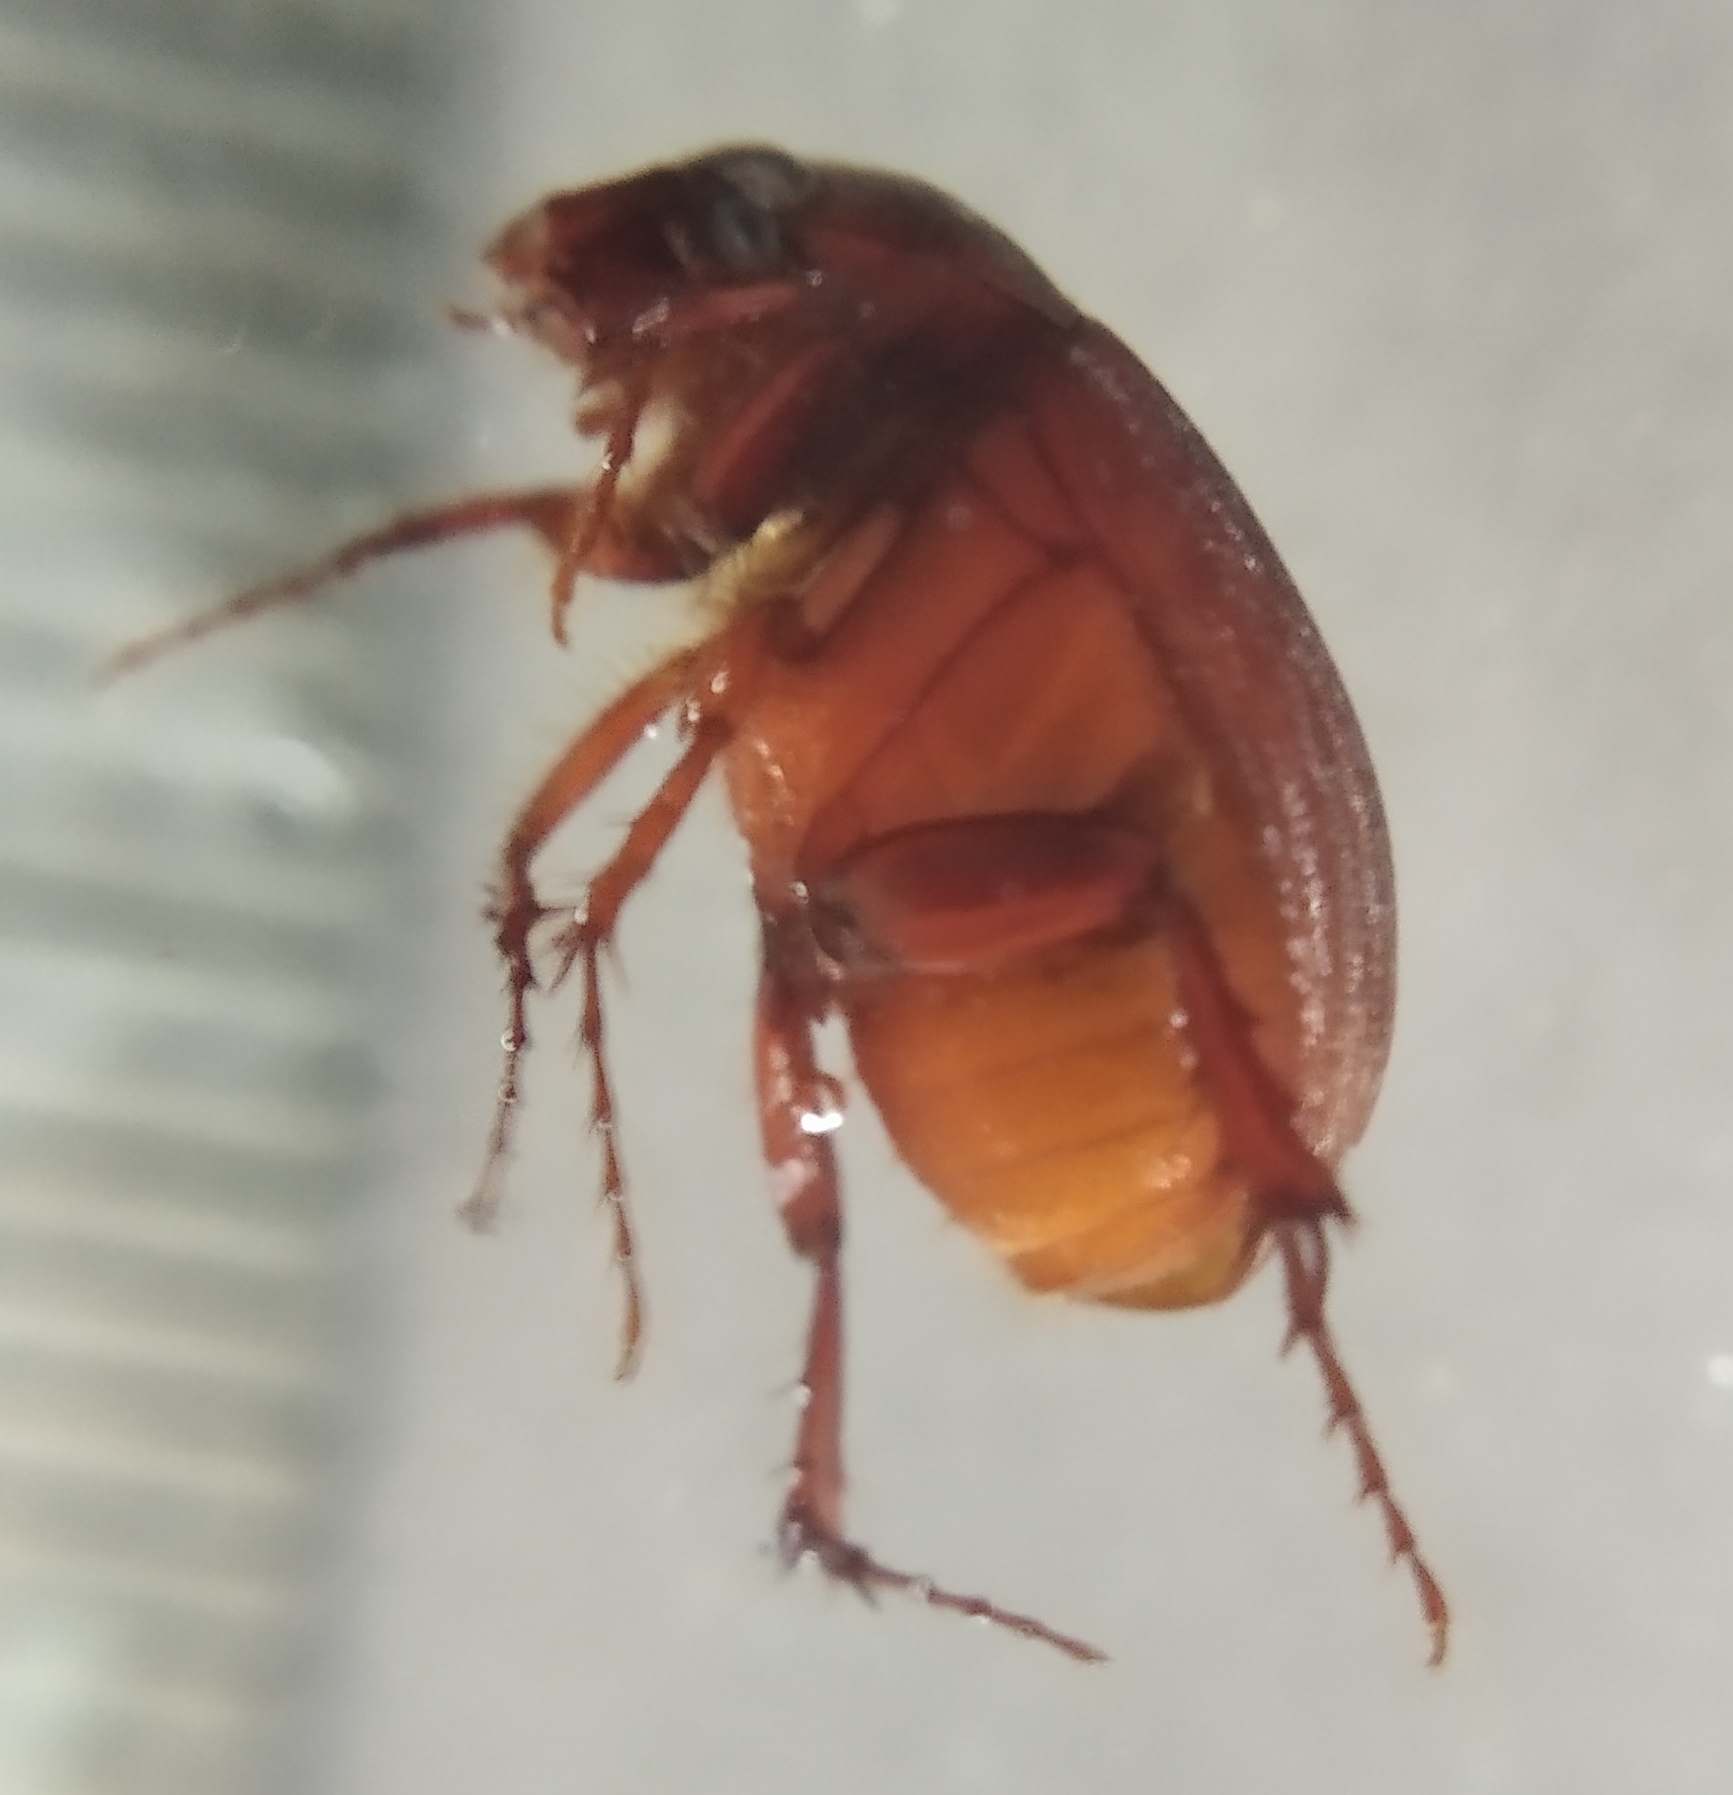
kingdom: Animalia
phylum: Arthropoda
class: Insecta
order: Coleoptera
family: Scarabaeidae
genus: Maladera
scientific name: Maladera holosericea
